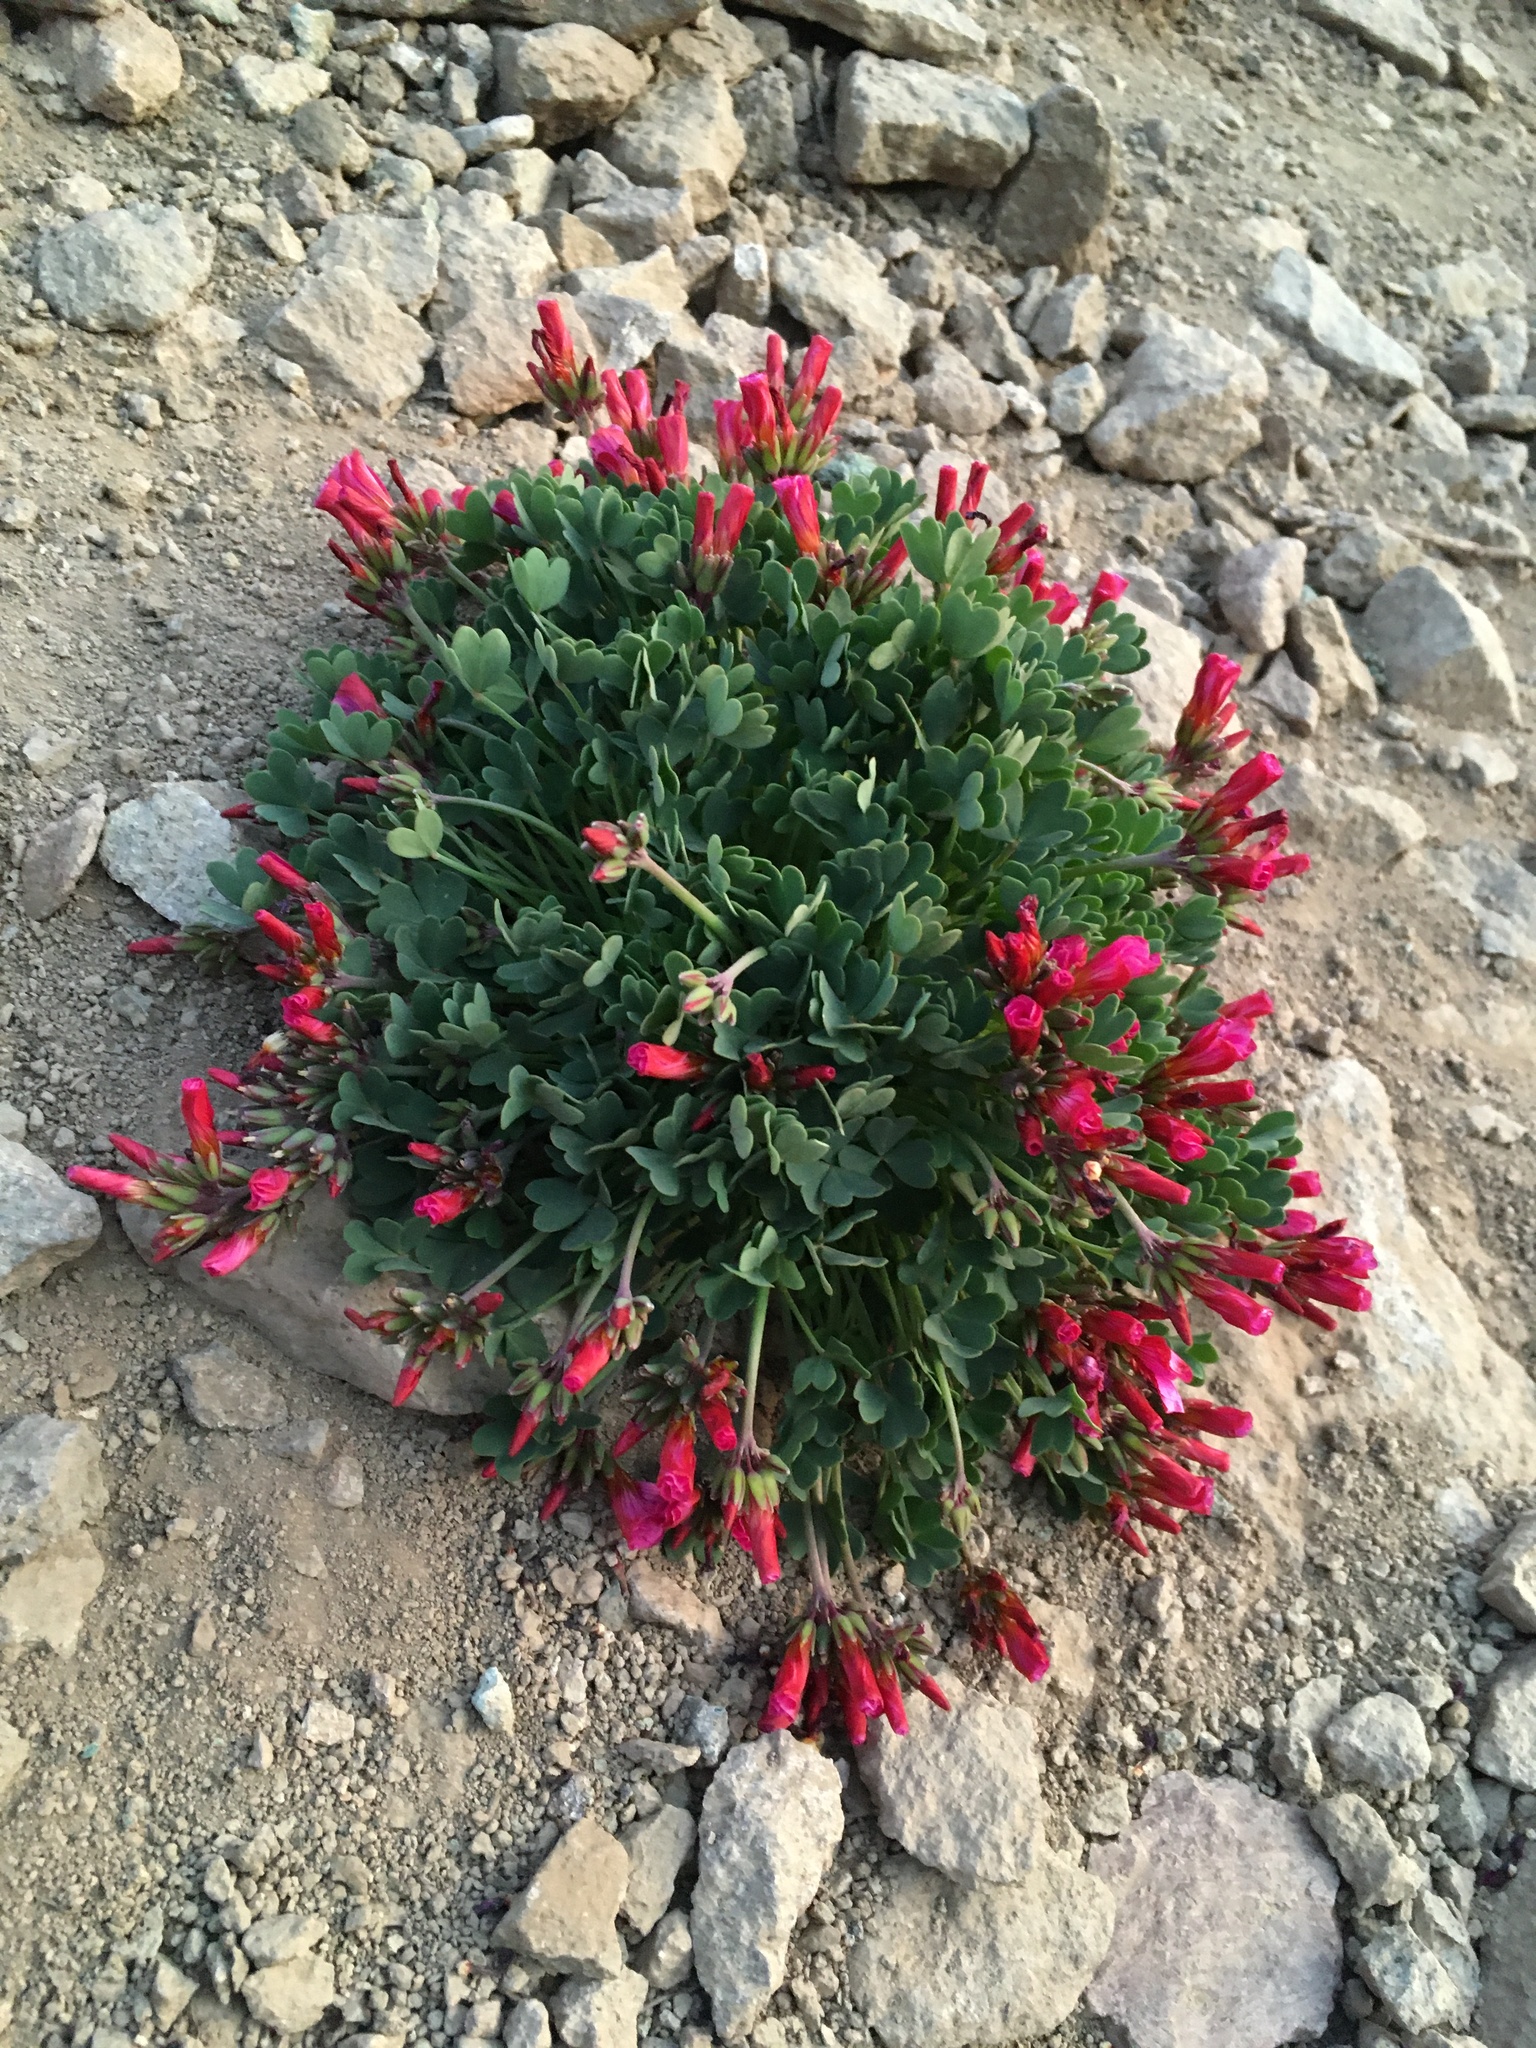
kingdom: Plantae
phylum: Tracheophyta
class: Magnoliopsida
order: Oxalidales
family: Oxalidaceae
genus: Oxalis
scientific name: Oxalis squamata
